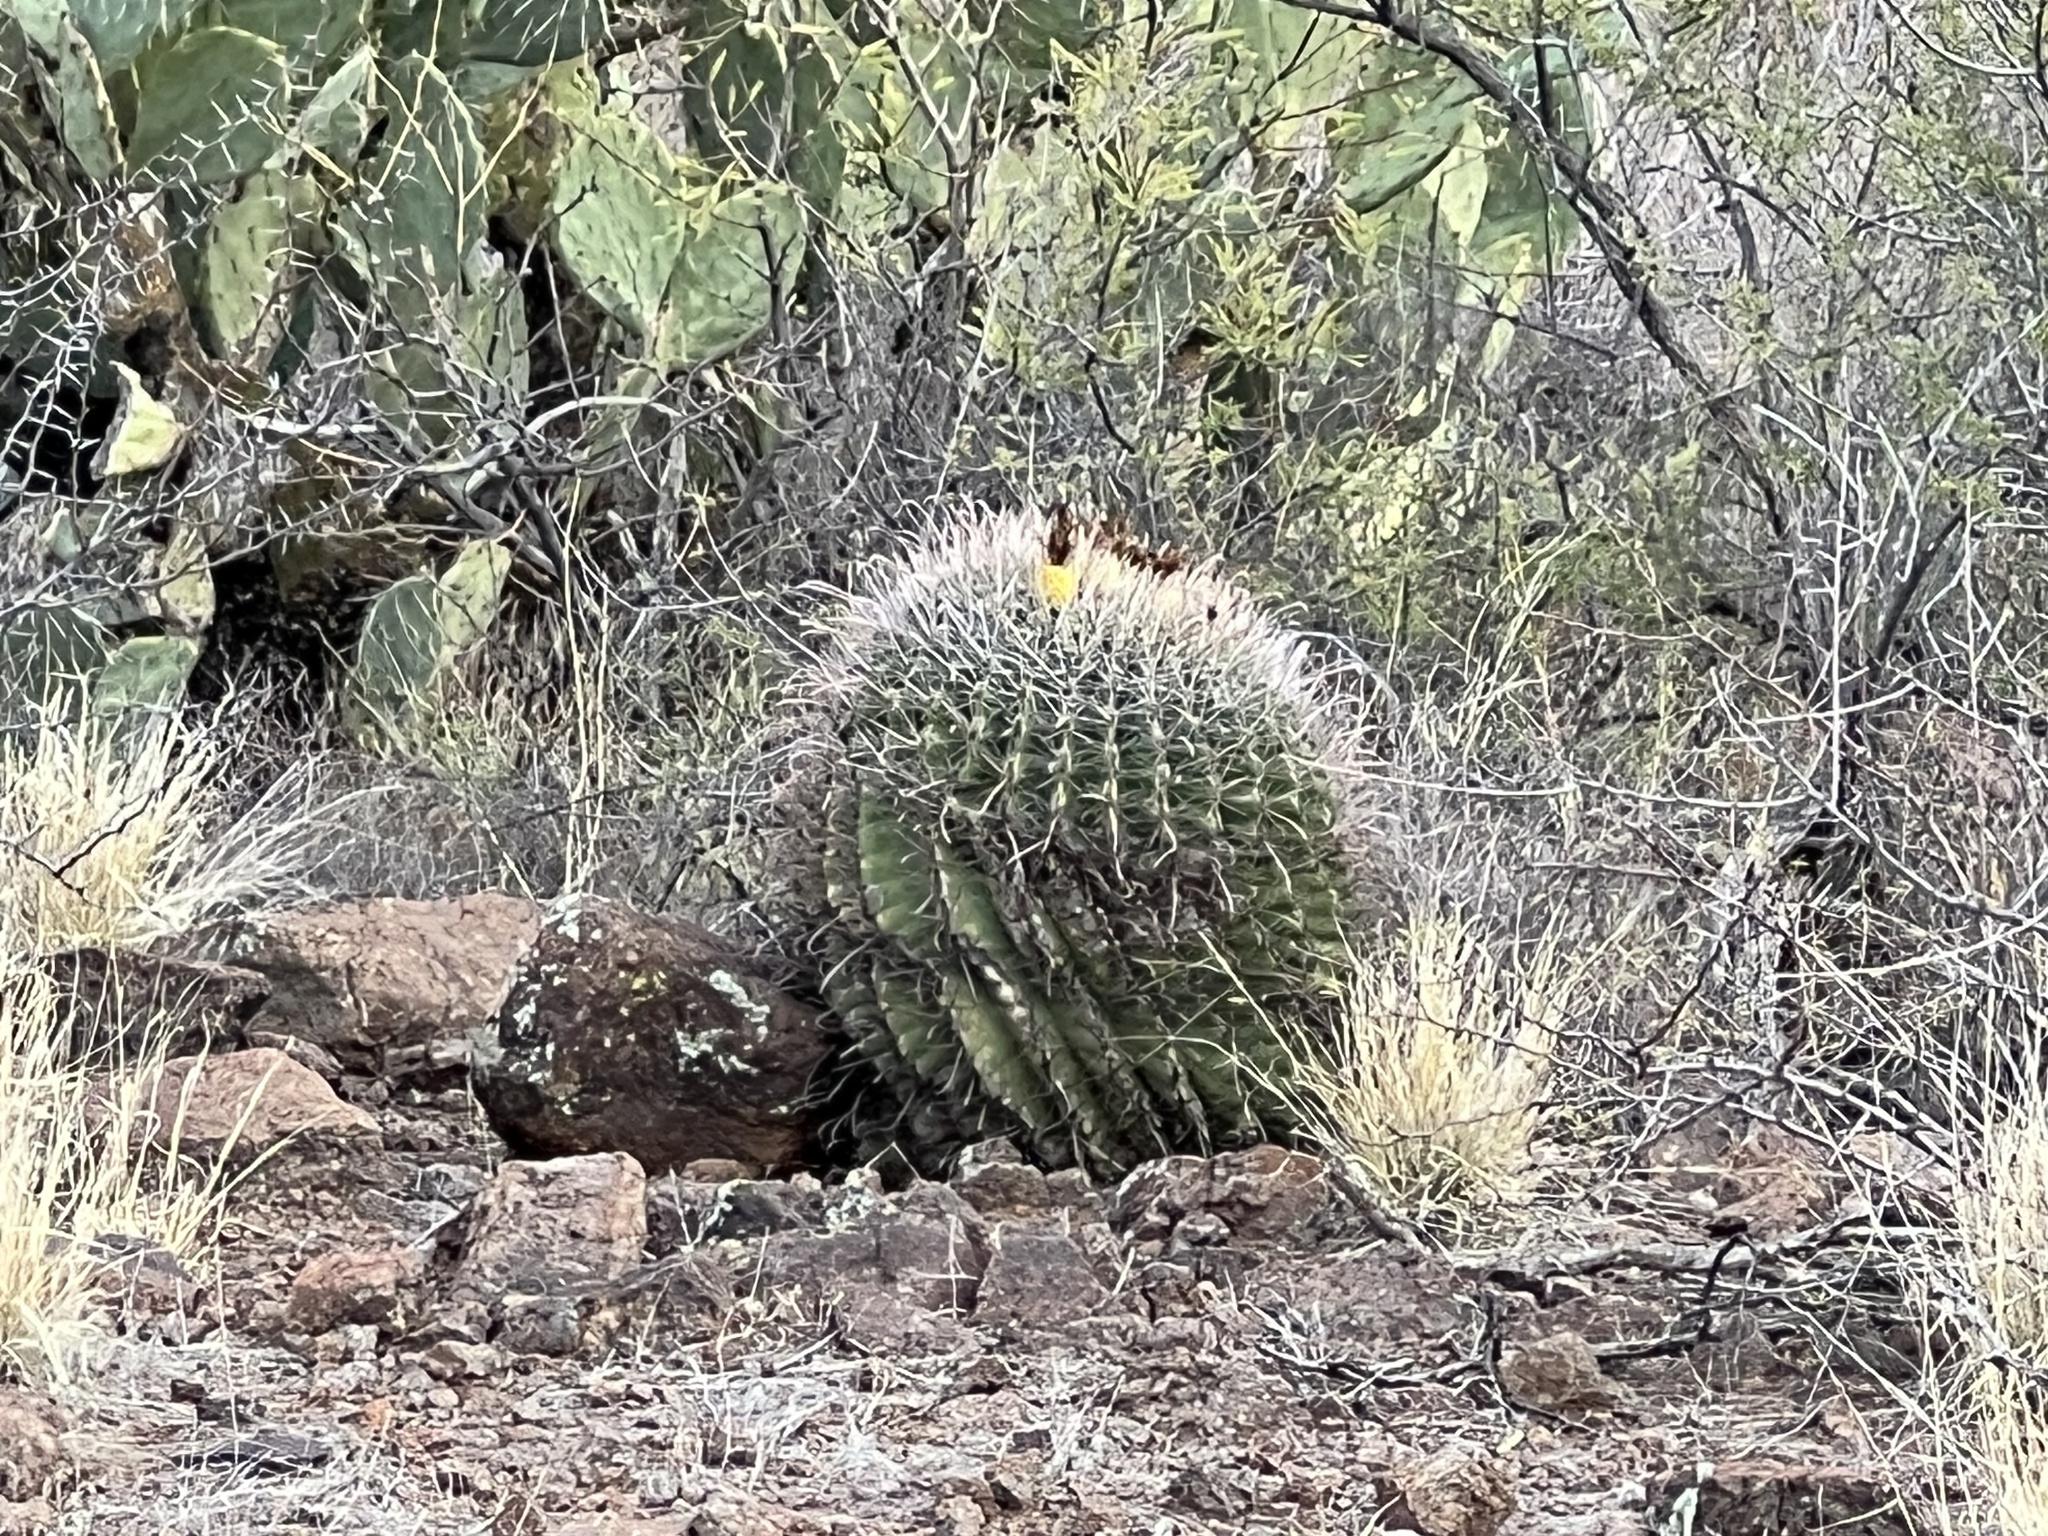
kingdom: Plantae
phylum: Tracheophyta
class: Magnoliopsida
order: Caryophyllales
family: Cactaceae
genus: Ferocactus
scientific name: Ferocactus wislizeni
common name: Candy barrel cactus
